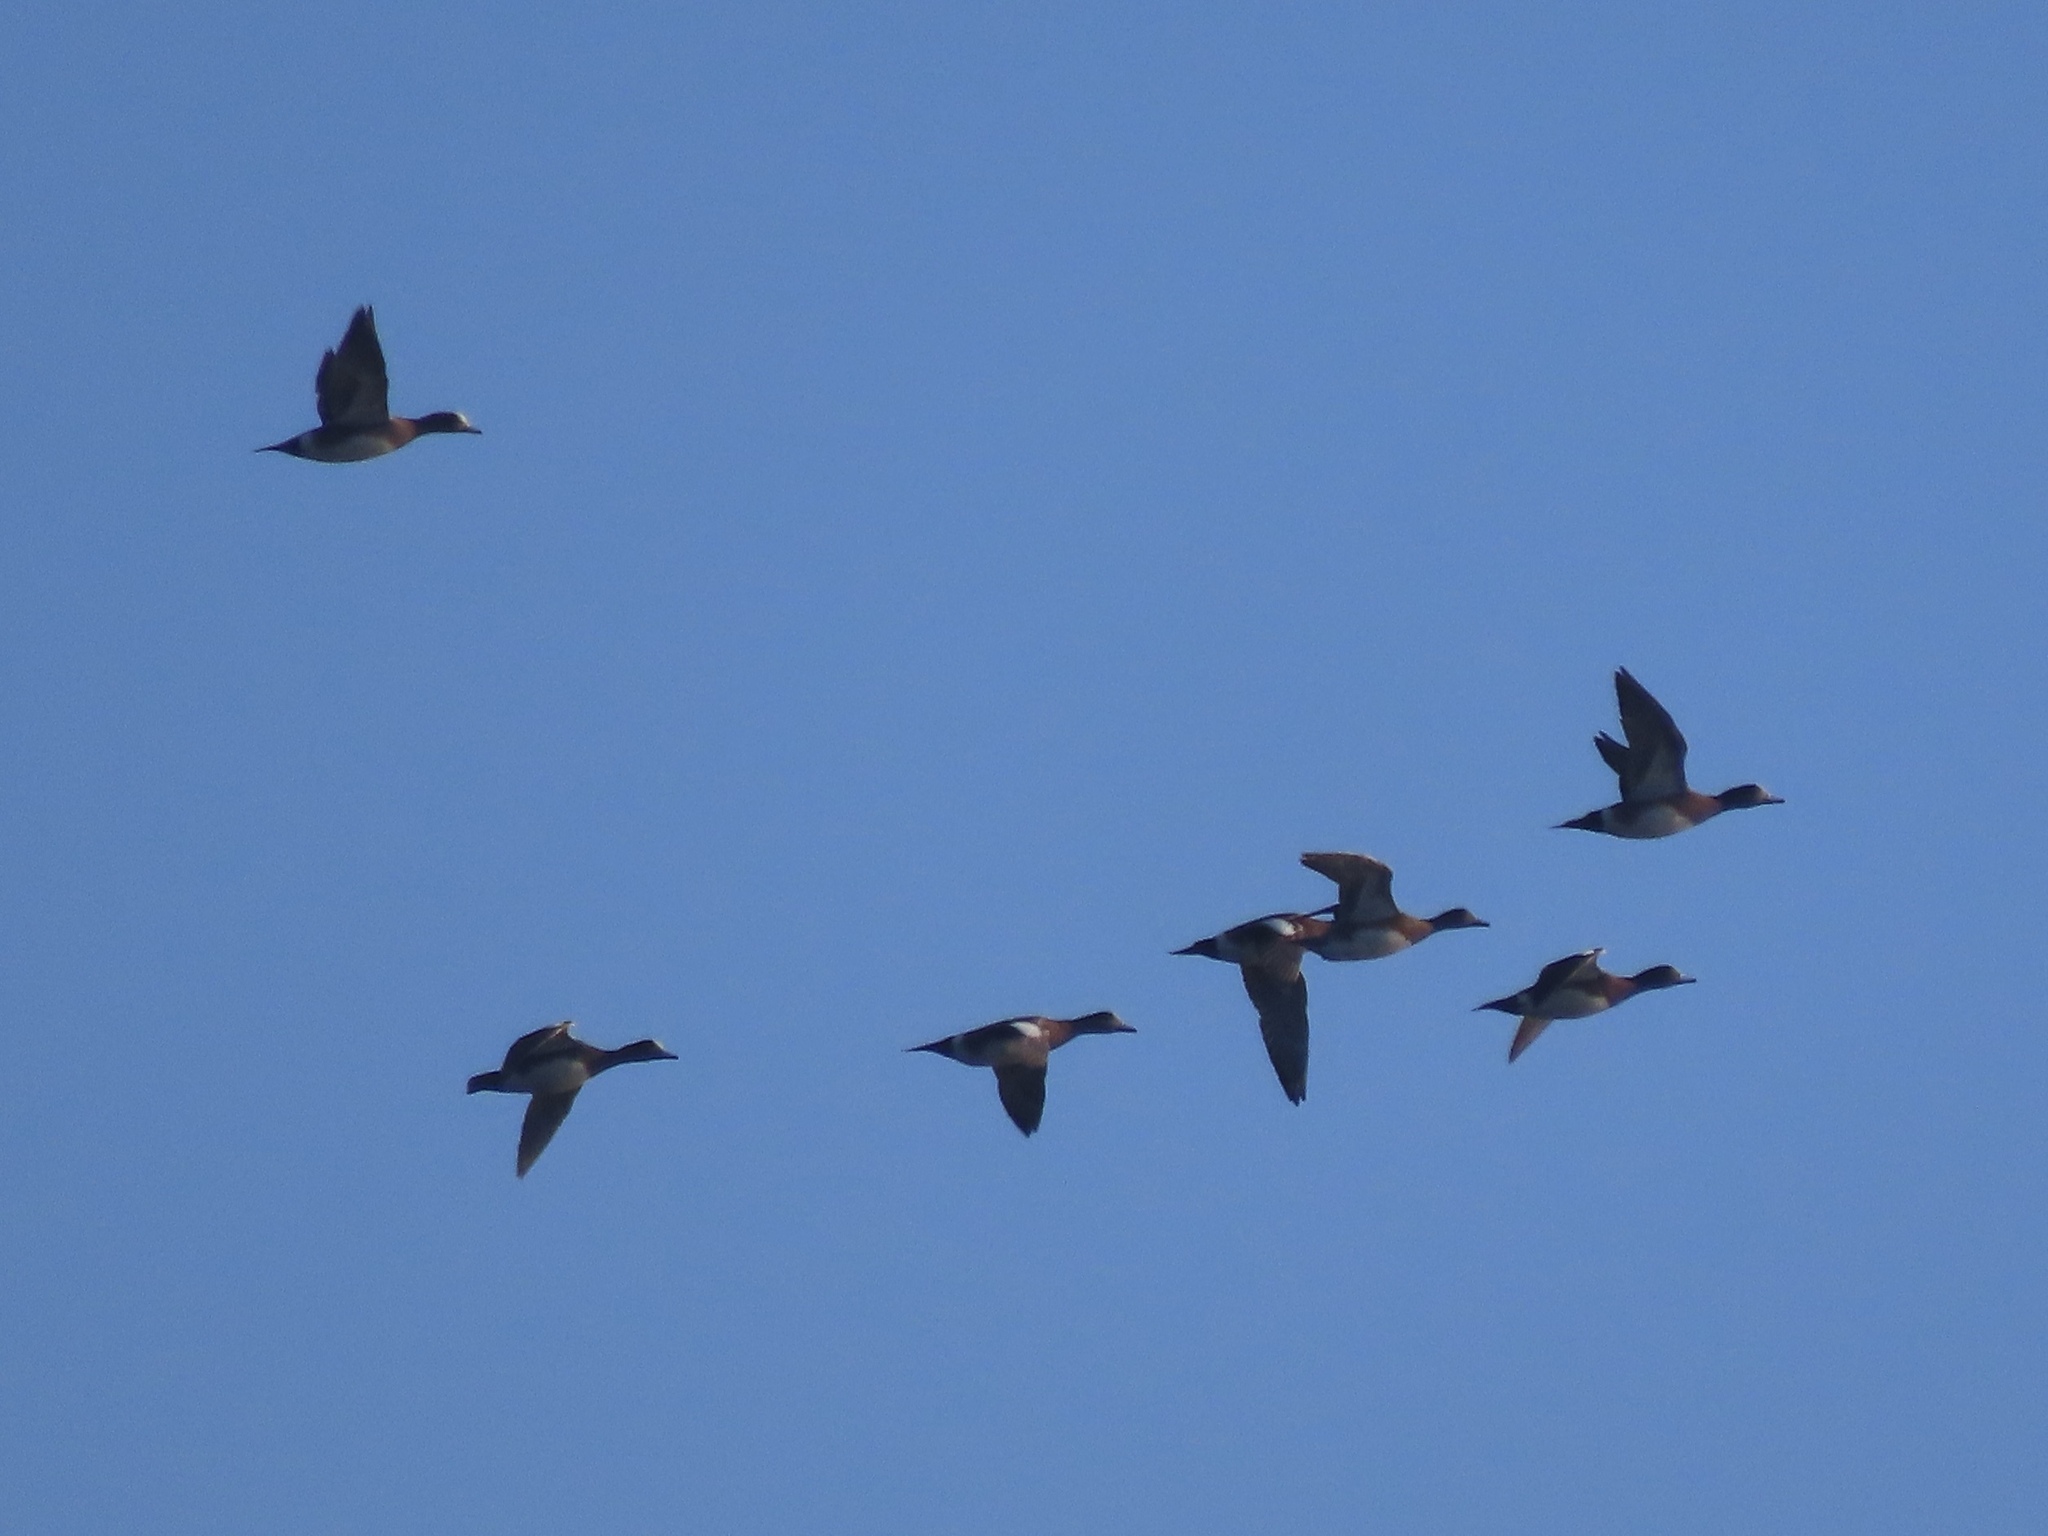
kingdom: Animalia
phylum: Chordata
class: Aves
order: Anseriformes
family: Anatidae
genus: Mareca
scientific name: Mareca americana
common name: American wigeon
